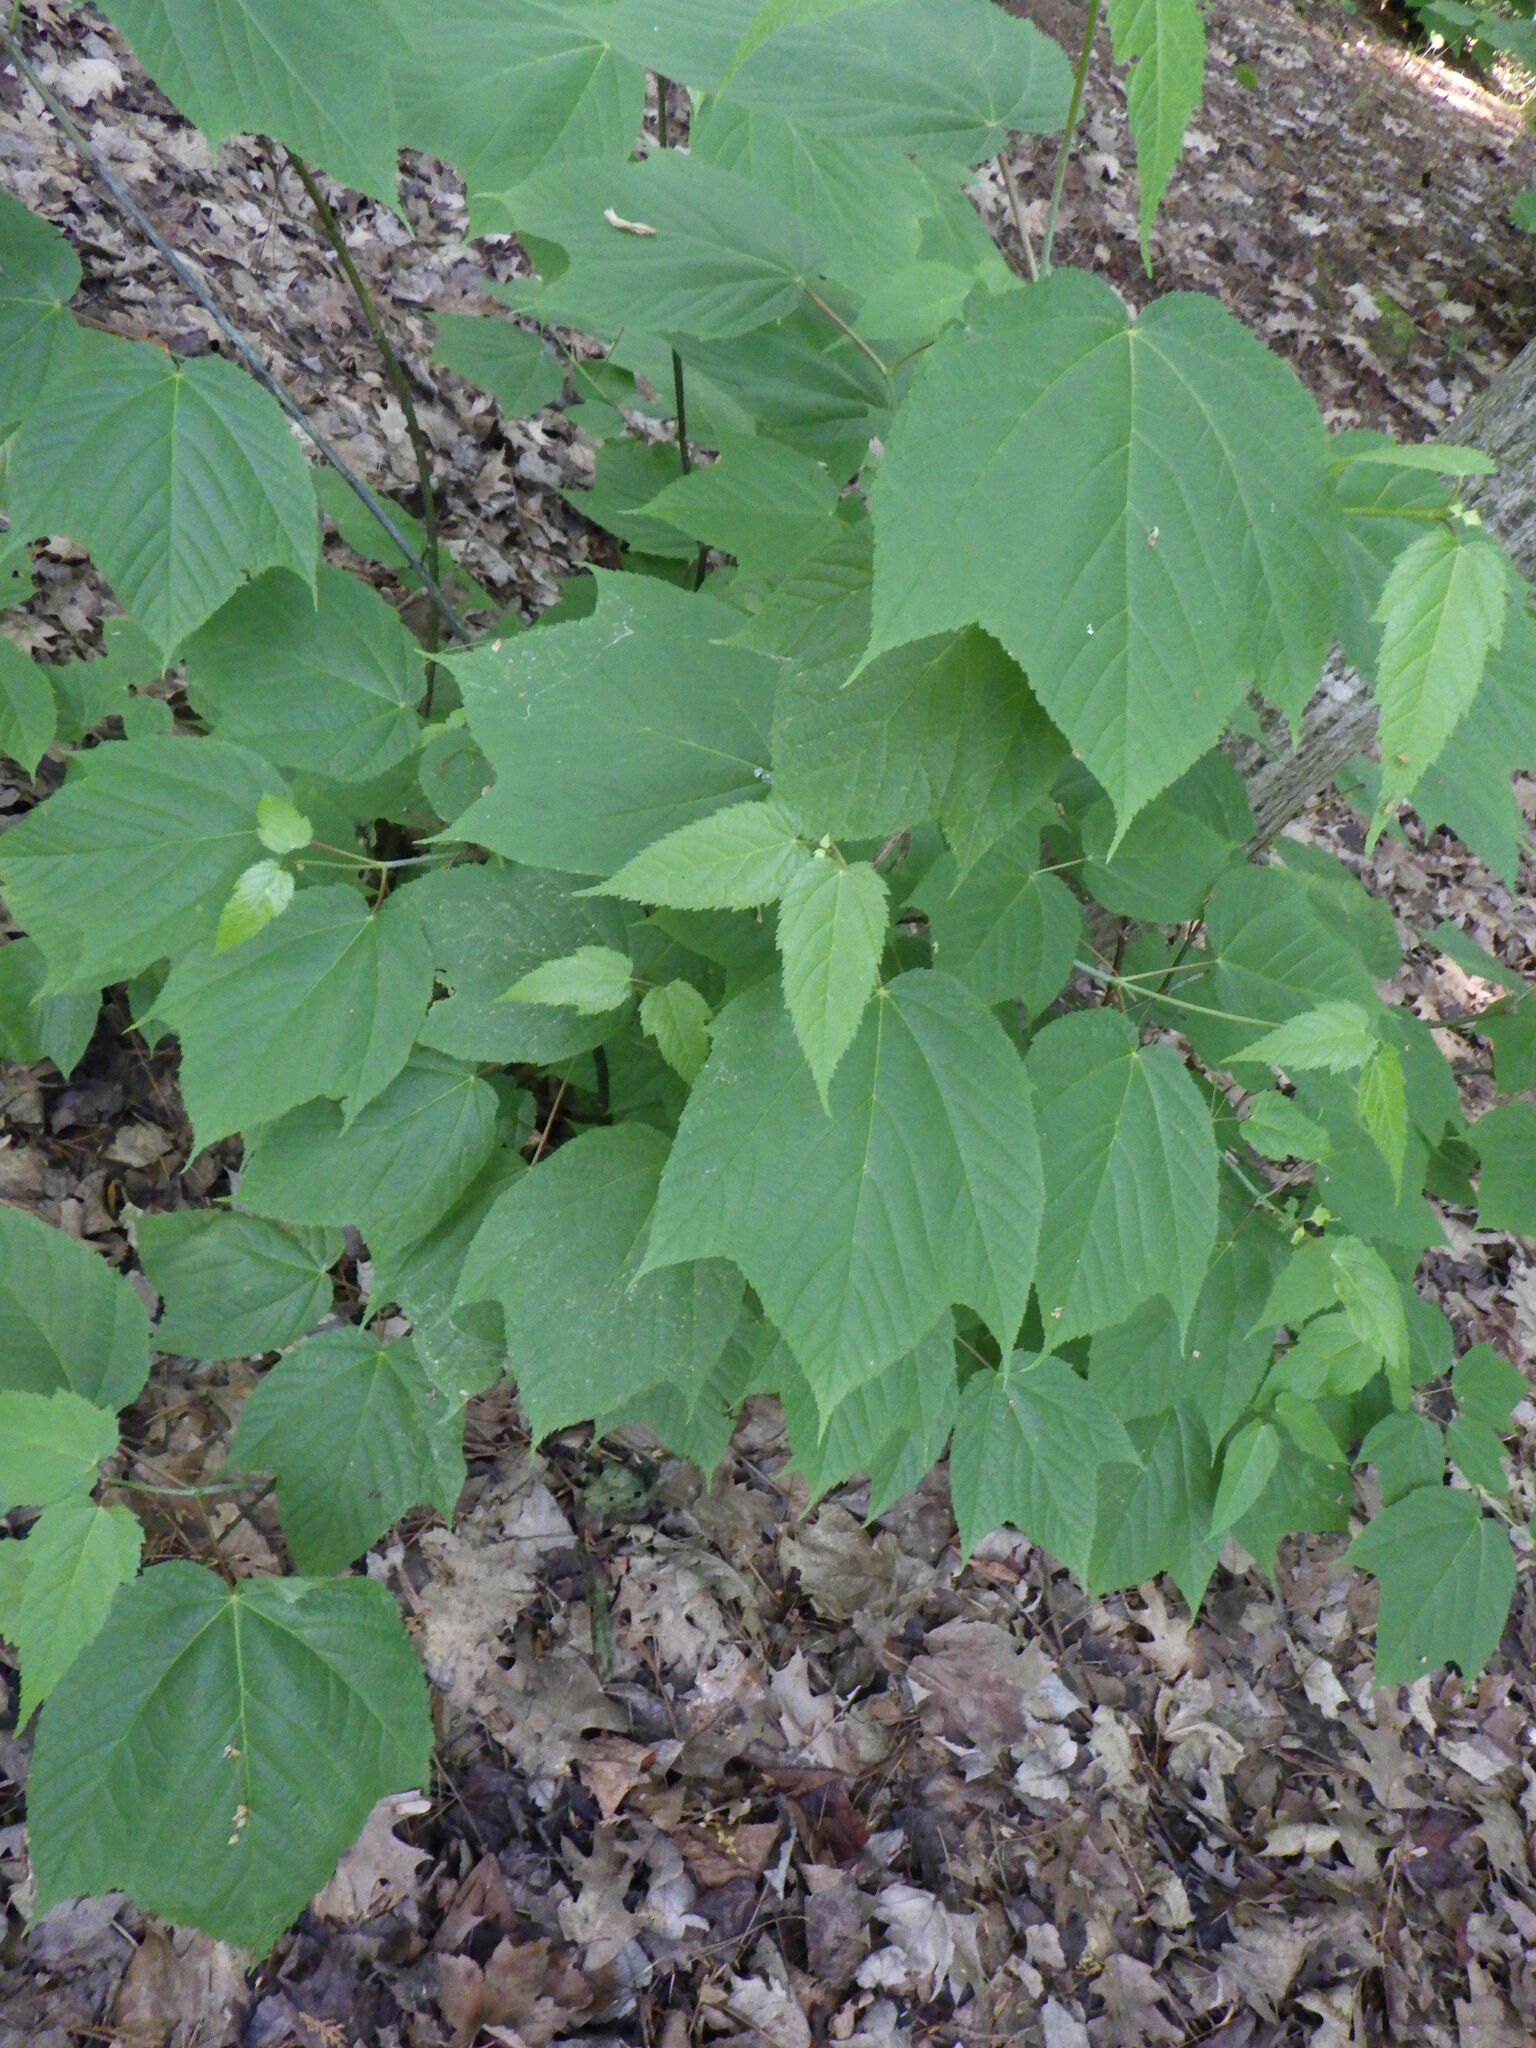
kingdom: Plantae
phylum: Tracheophyta
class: Magnoliopsida
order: Sapindales
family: Sapindaceae
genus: Acer
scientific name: Acer pensylvanicum
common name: Moosewood
